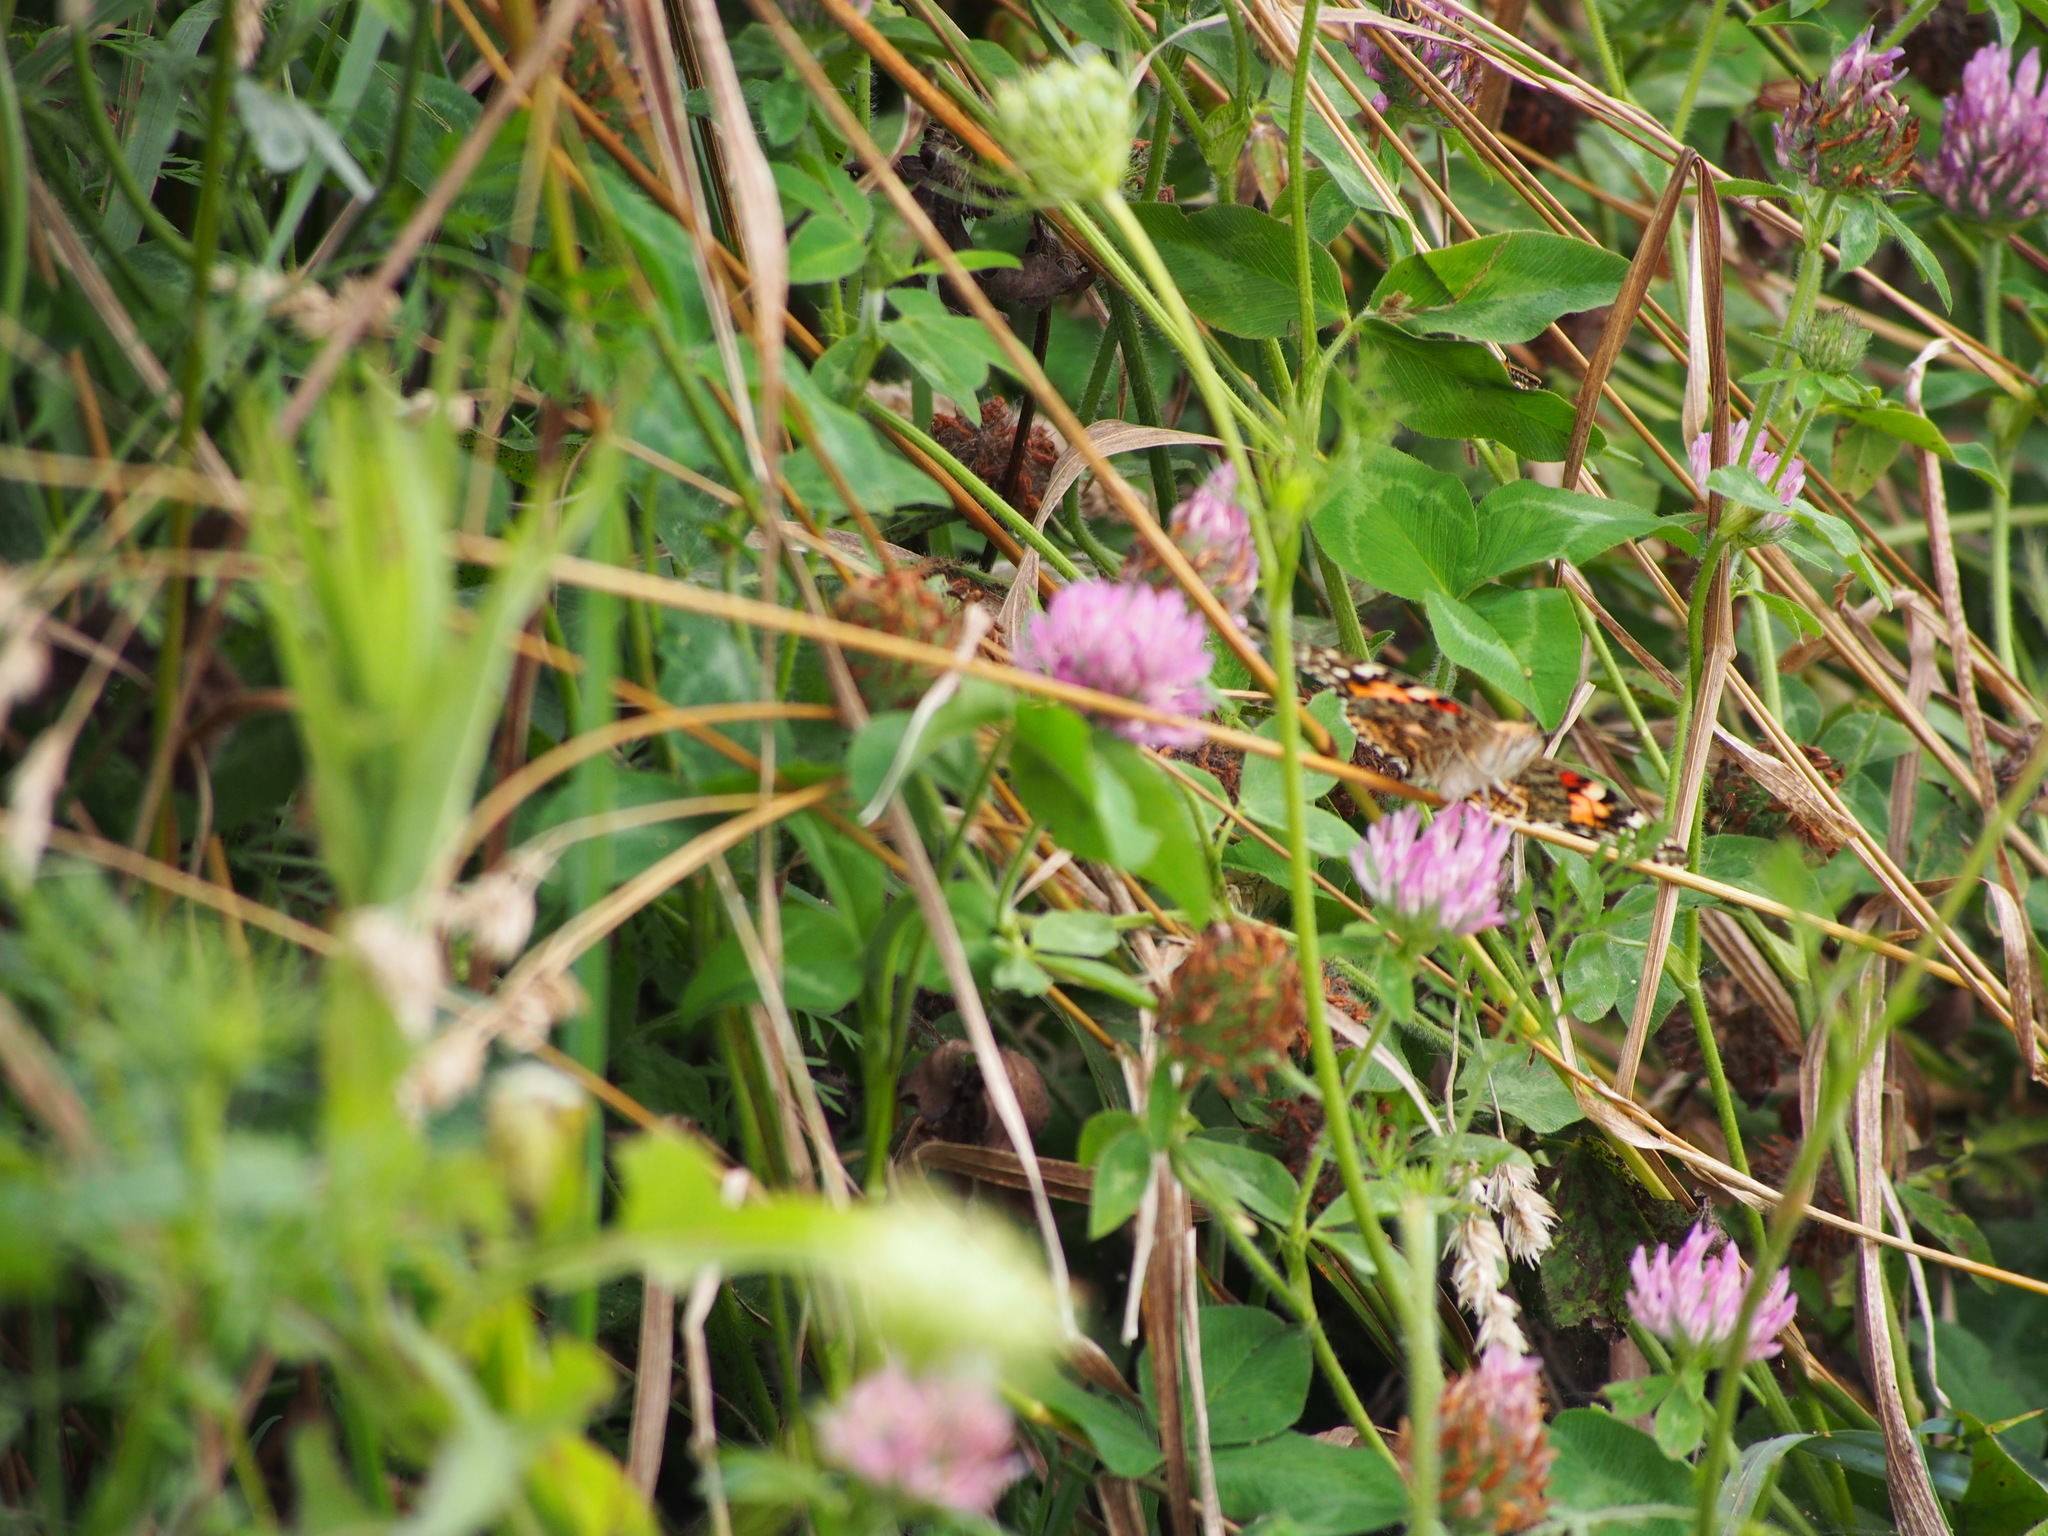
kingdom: Animalia
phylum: Arthropoda
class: Insecta
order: Lepidoptera
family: Nymphalidae
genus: Vanessa
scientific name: Vanessa cardui
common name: Painted lady
